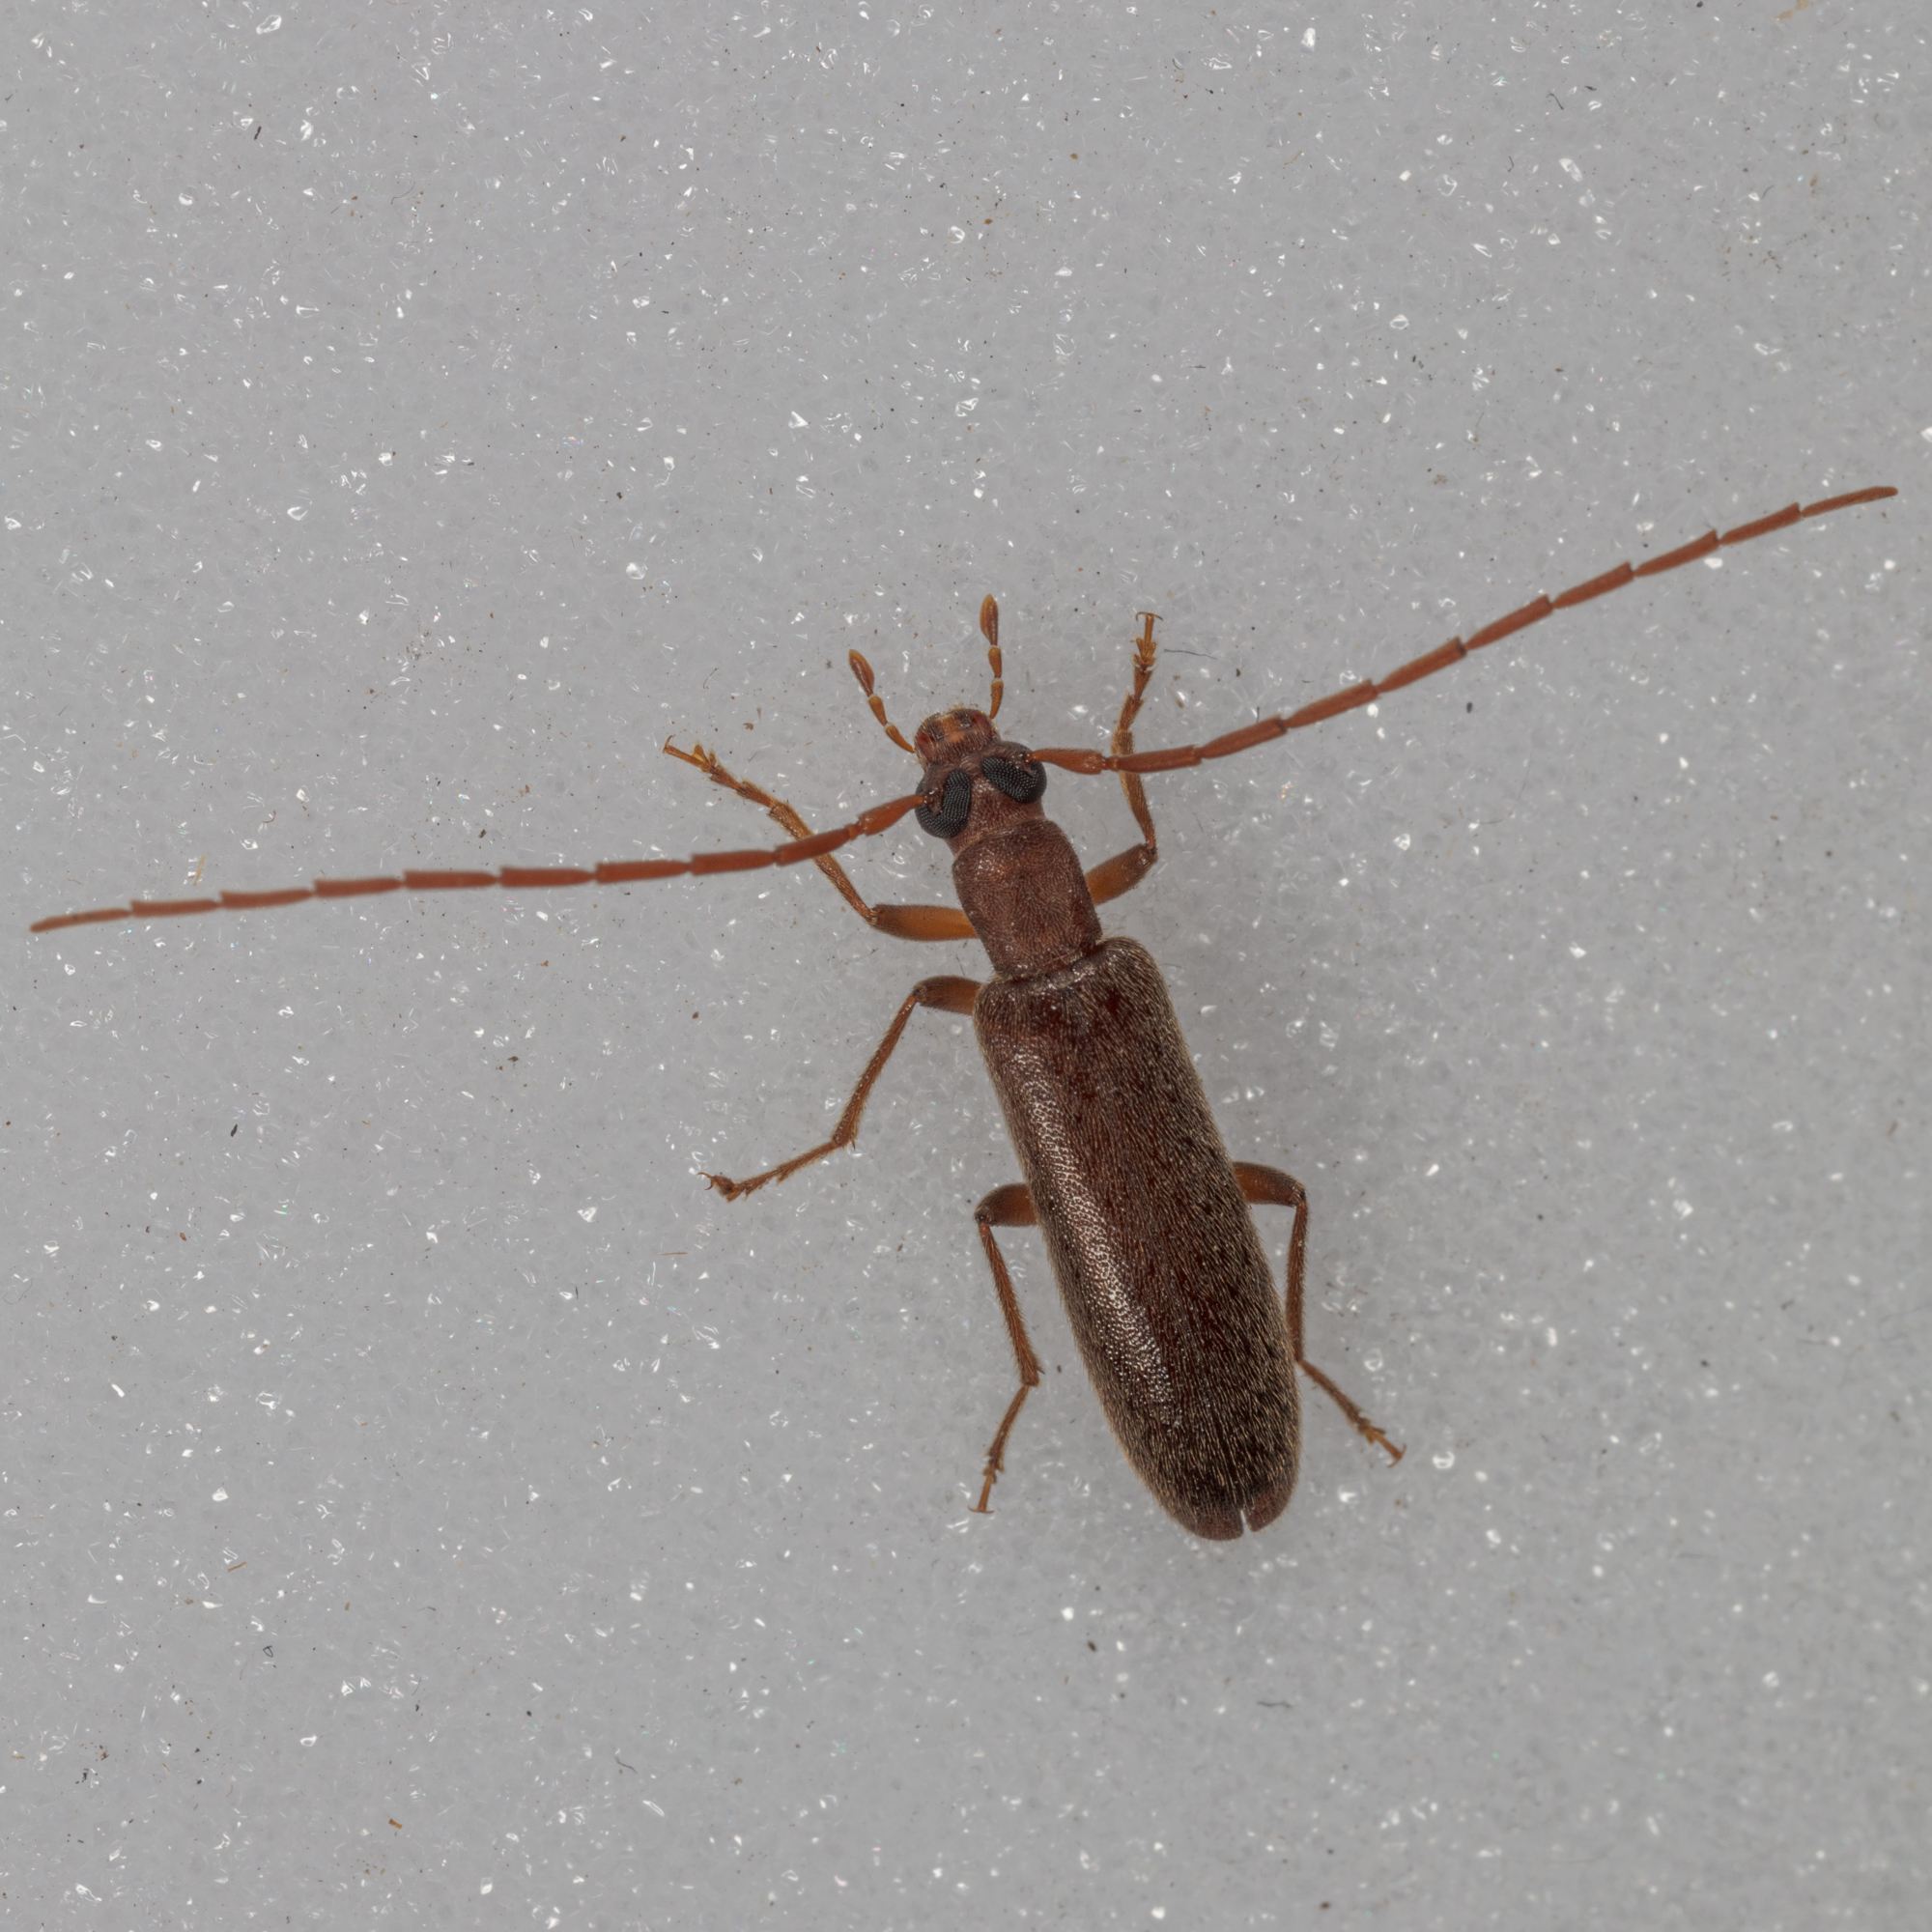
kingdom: Animalia
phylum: Arthropoda
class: Insecta
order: Coleoptera
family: Oedemeridae
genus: Sparedrus
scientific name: Sparedrus aspersus
